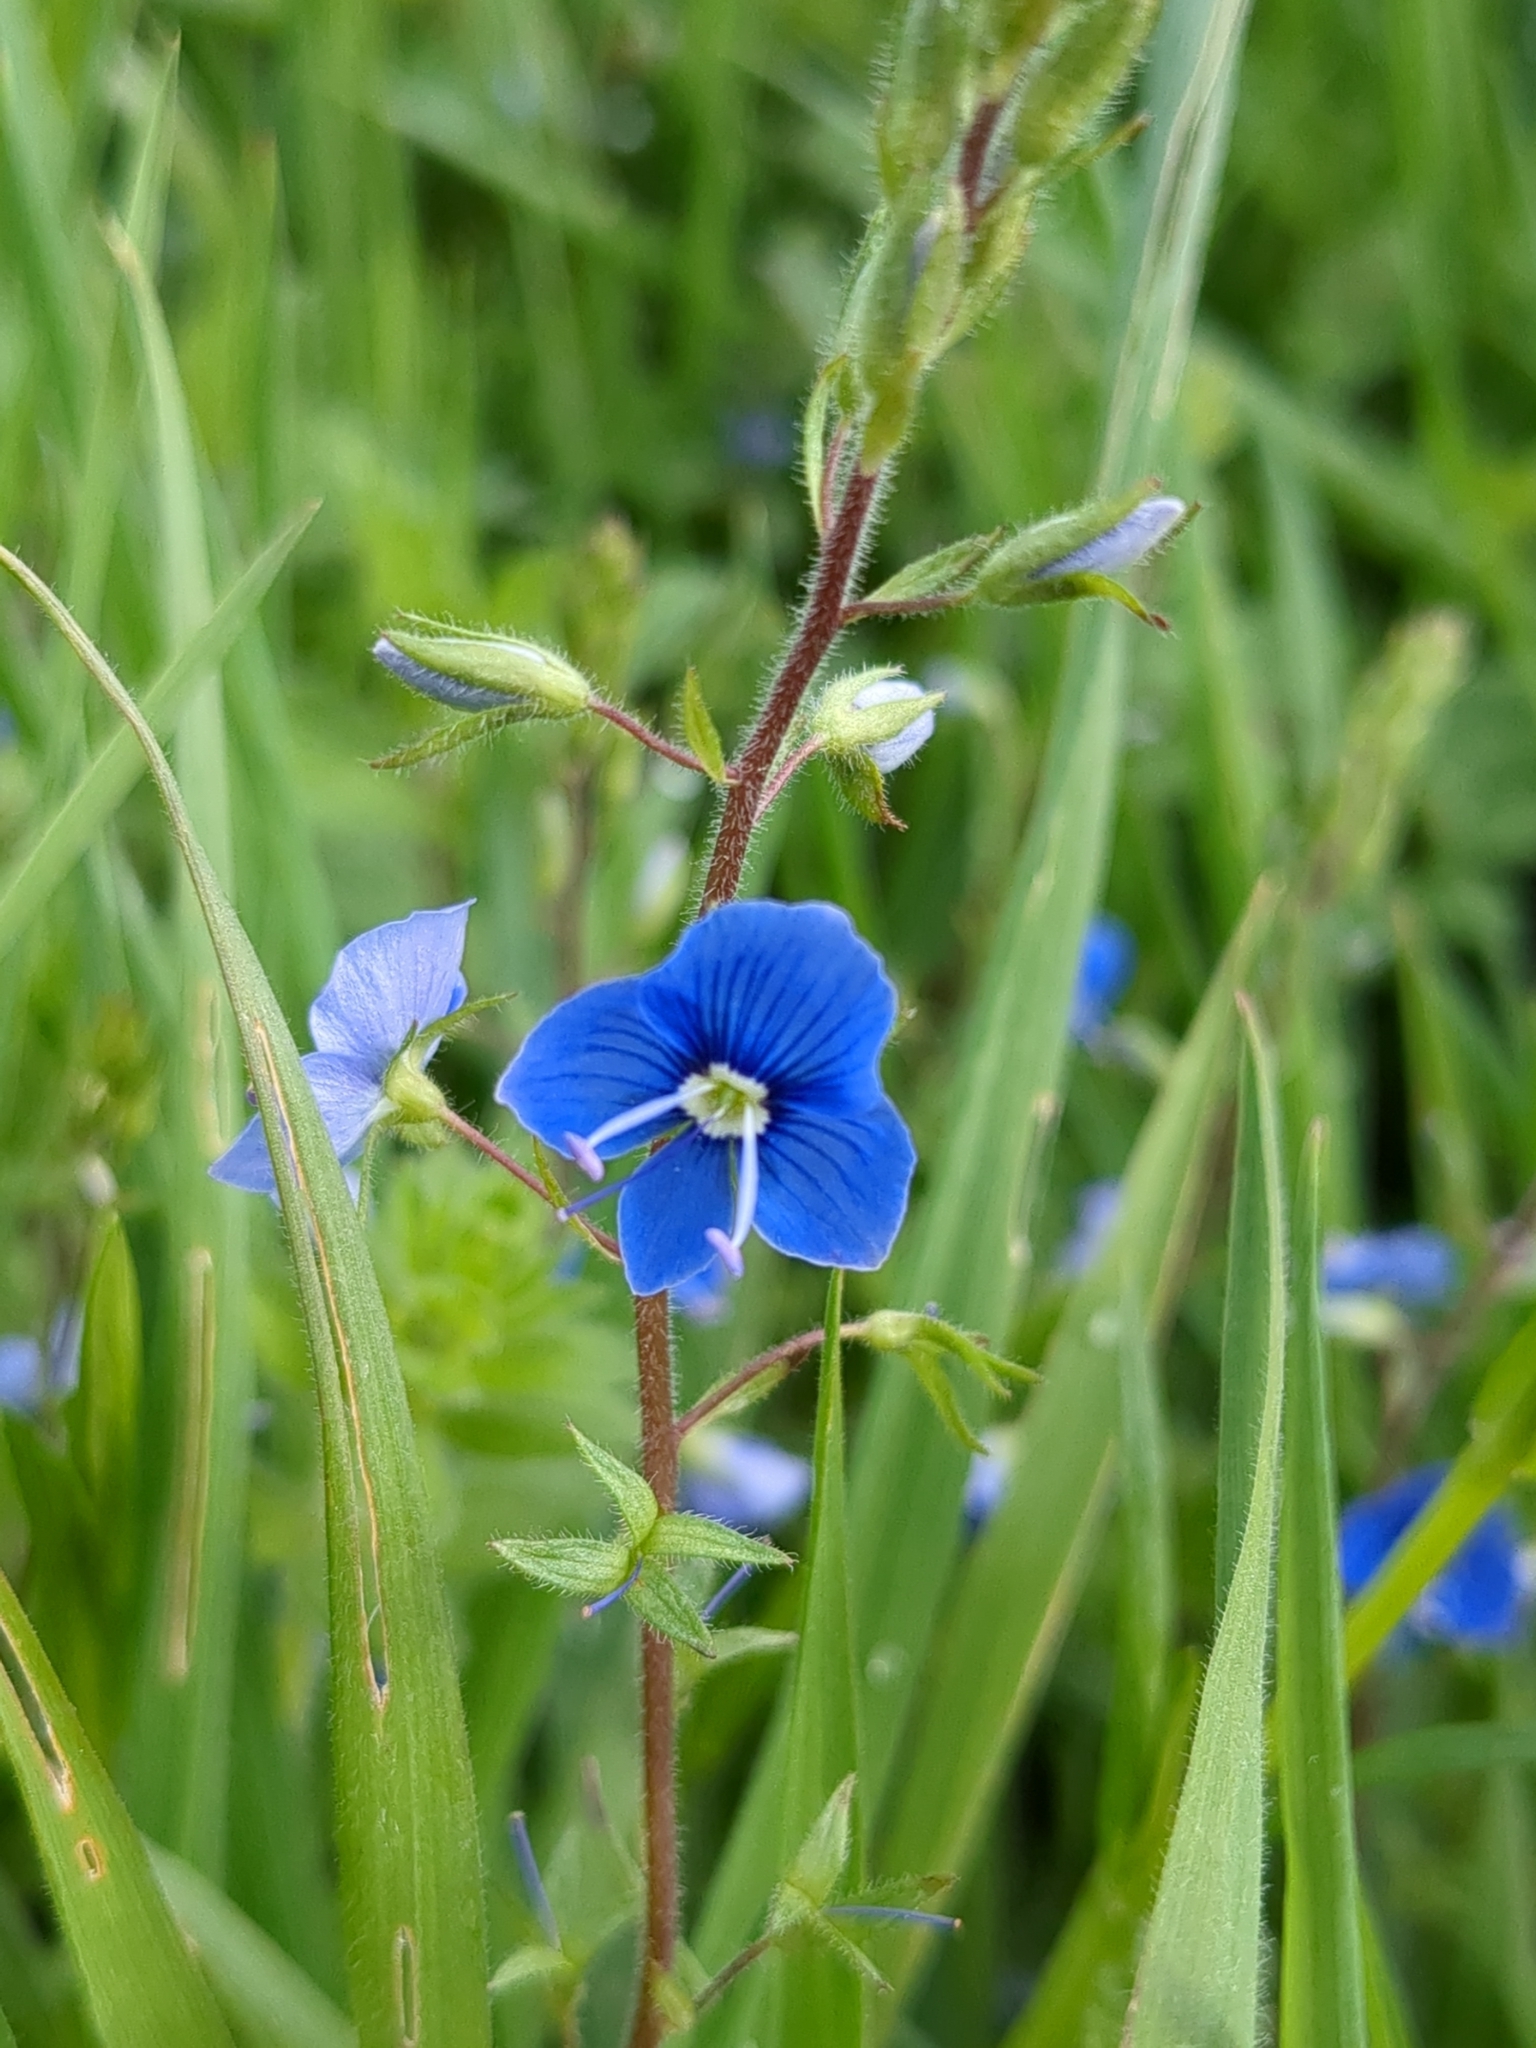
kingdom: Plantae
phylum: Tracheophyta
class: Magnoliopsida
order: Lamiales
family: Plantaginaceae
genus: Veronica
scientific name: Veronica chamaedrys
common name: Germander speedwell
